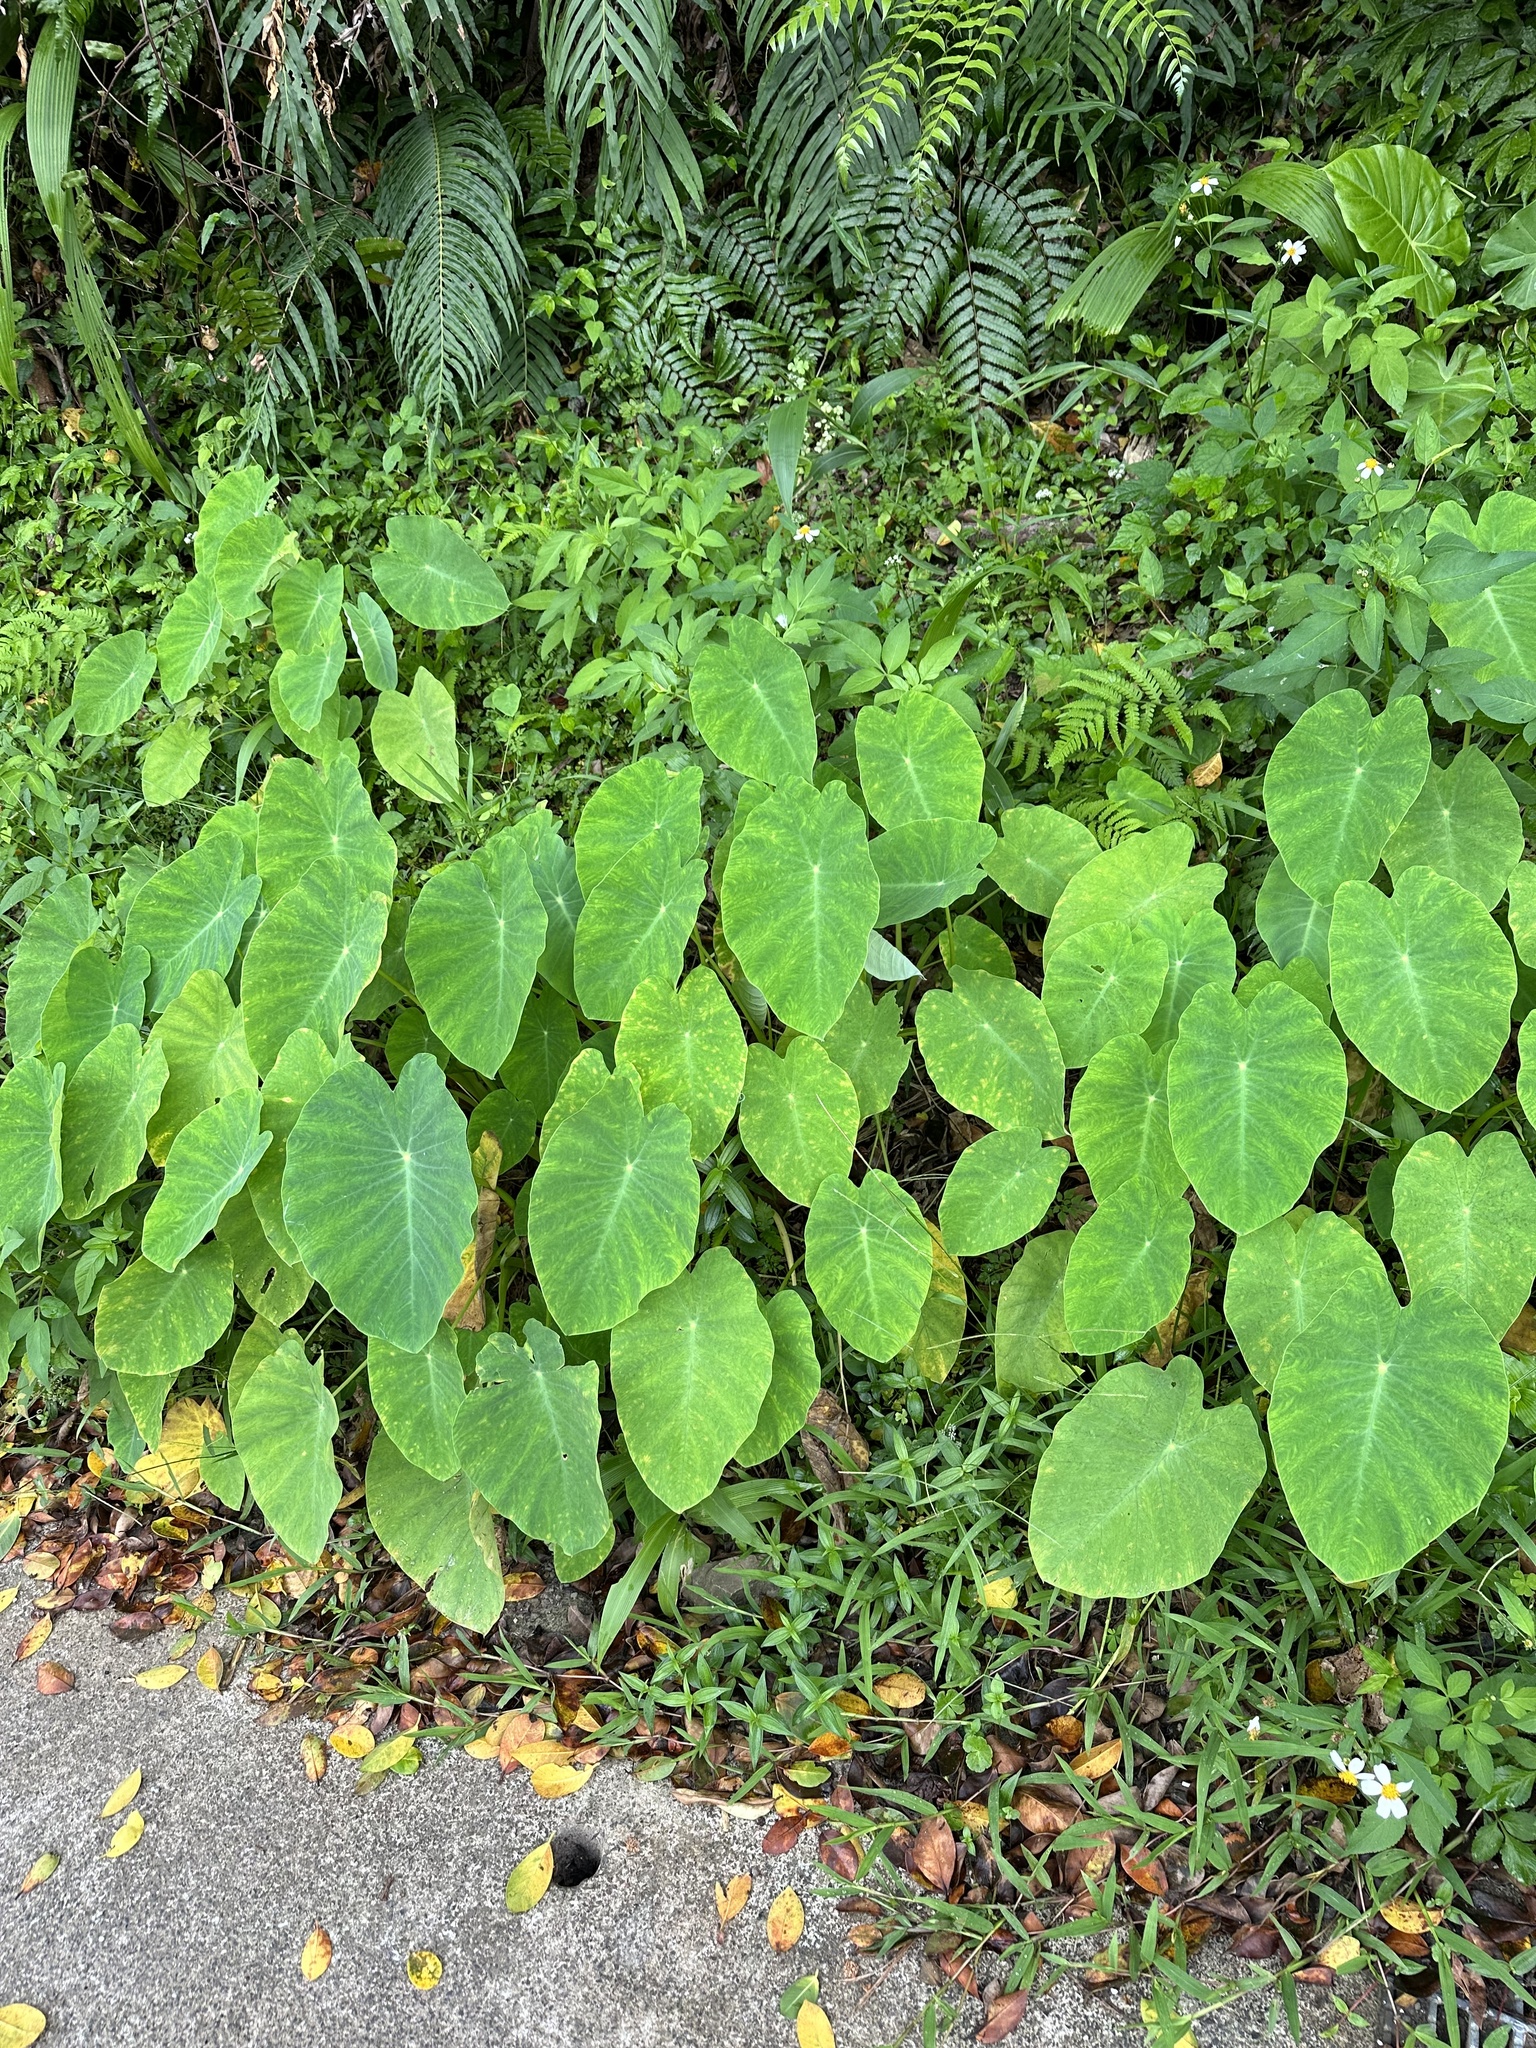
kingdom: Plantae
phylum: Tracheophyta
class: Liliopsida
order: Alismatales
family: Araceae
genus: Colocasia
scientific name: Colocasia esculenta
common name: Taro
